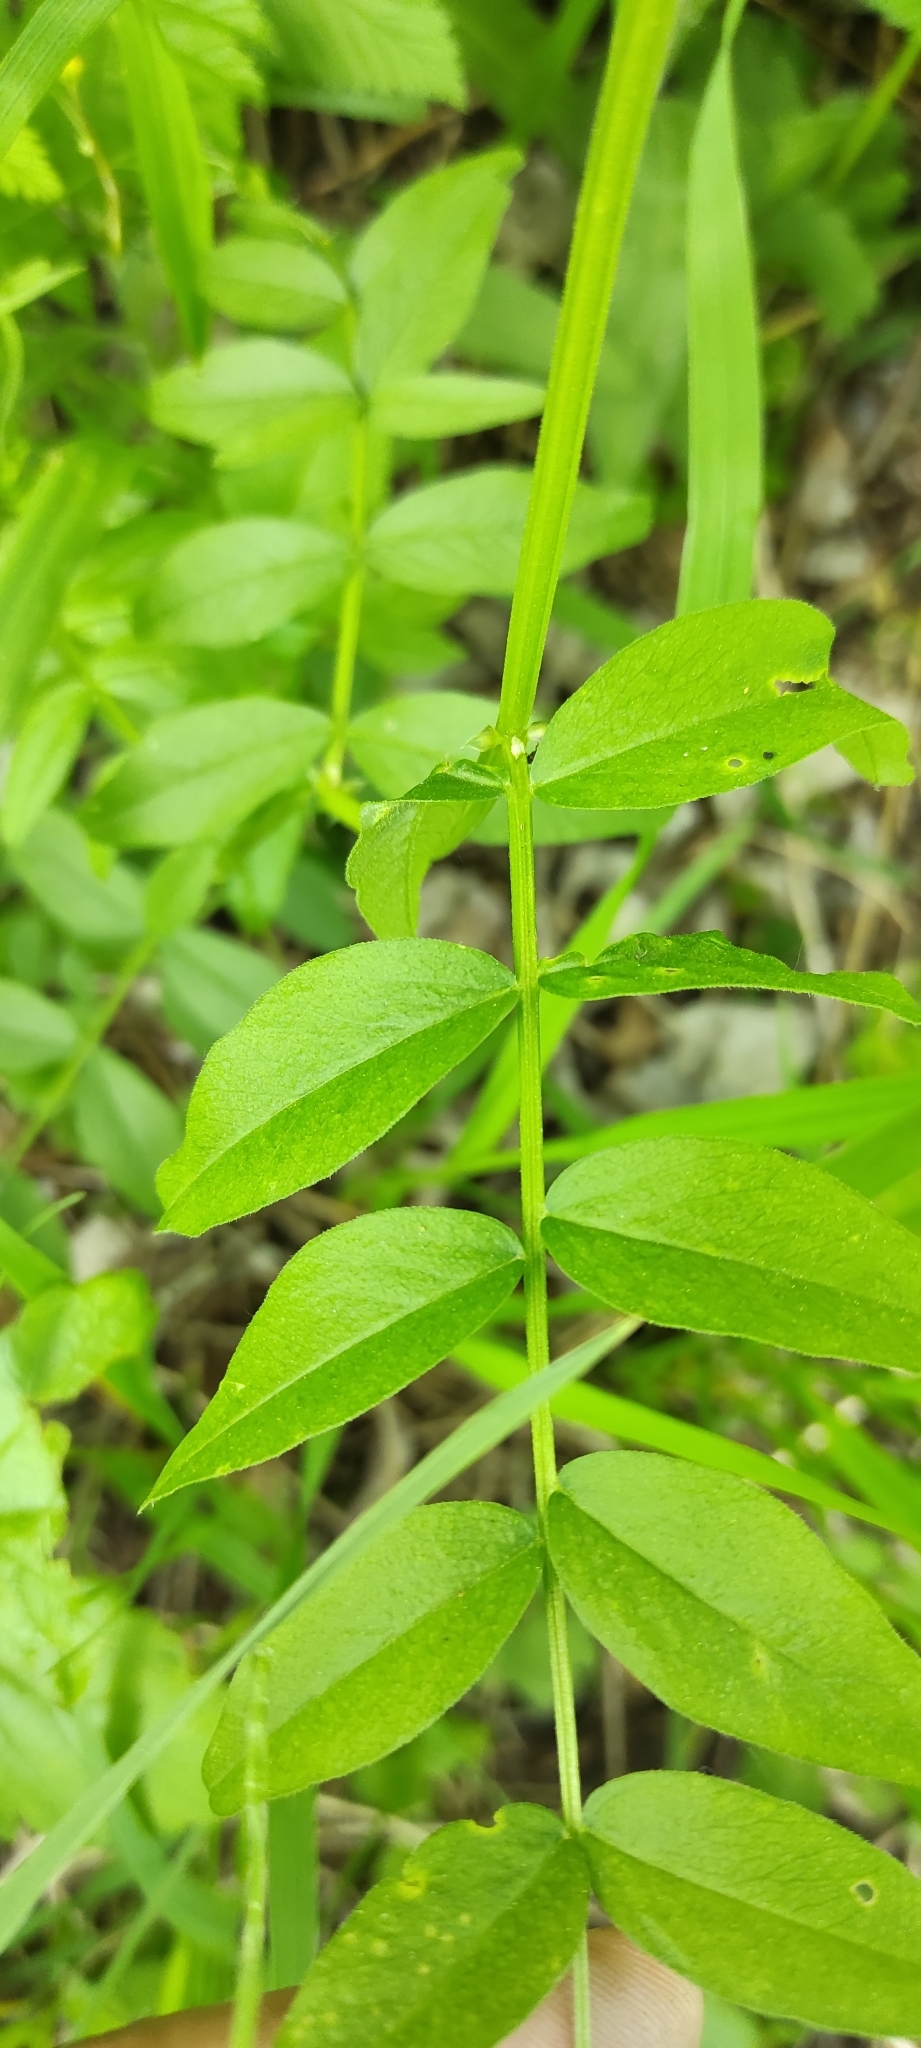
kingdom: Plantae
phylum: Tracheophyta
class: Magnoliopsida
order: Fabales
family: Fabaceae
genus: Vicia
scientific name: Vicia sepium
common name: Bush vetch
